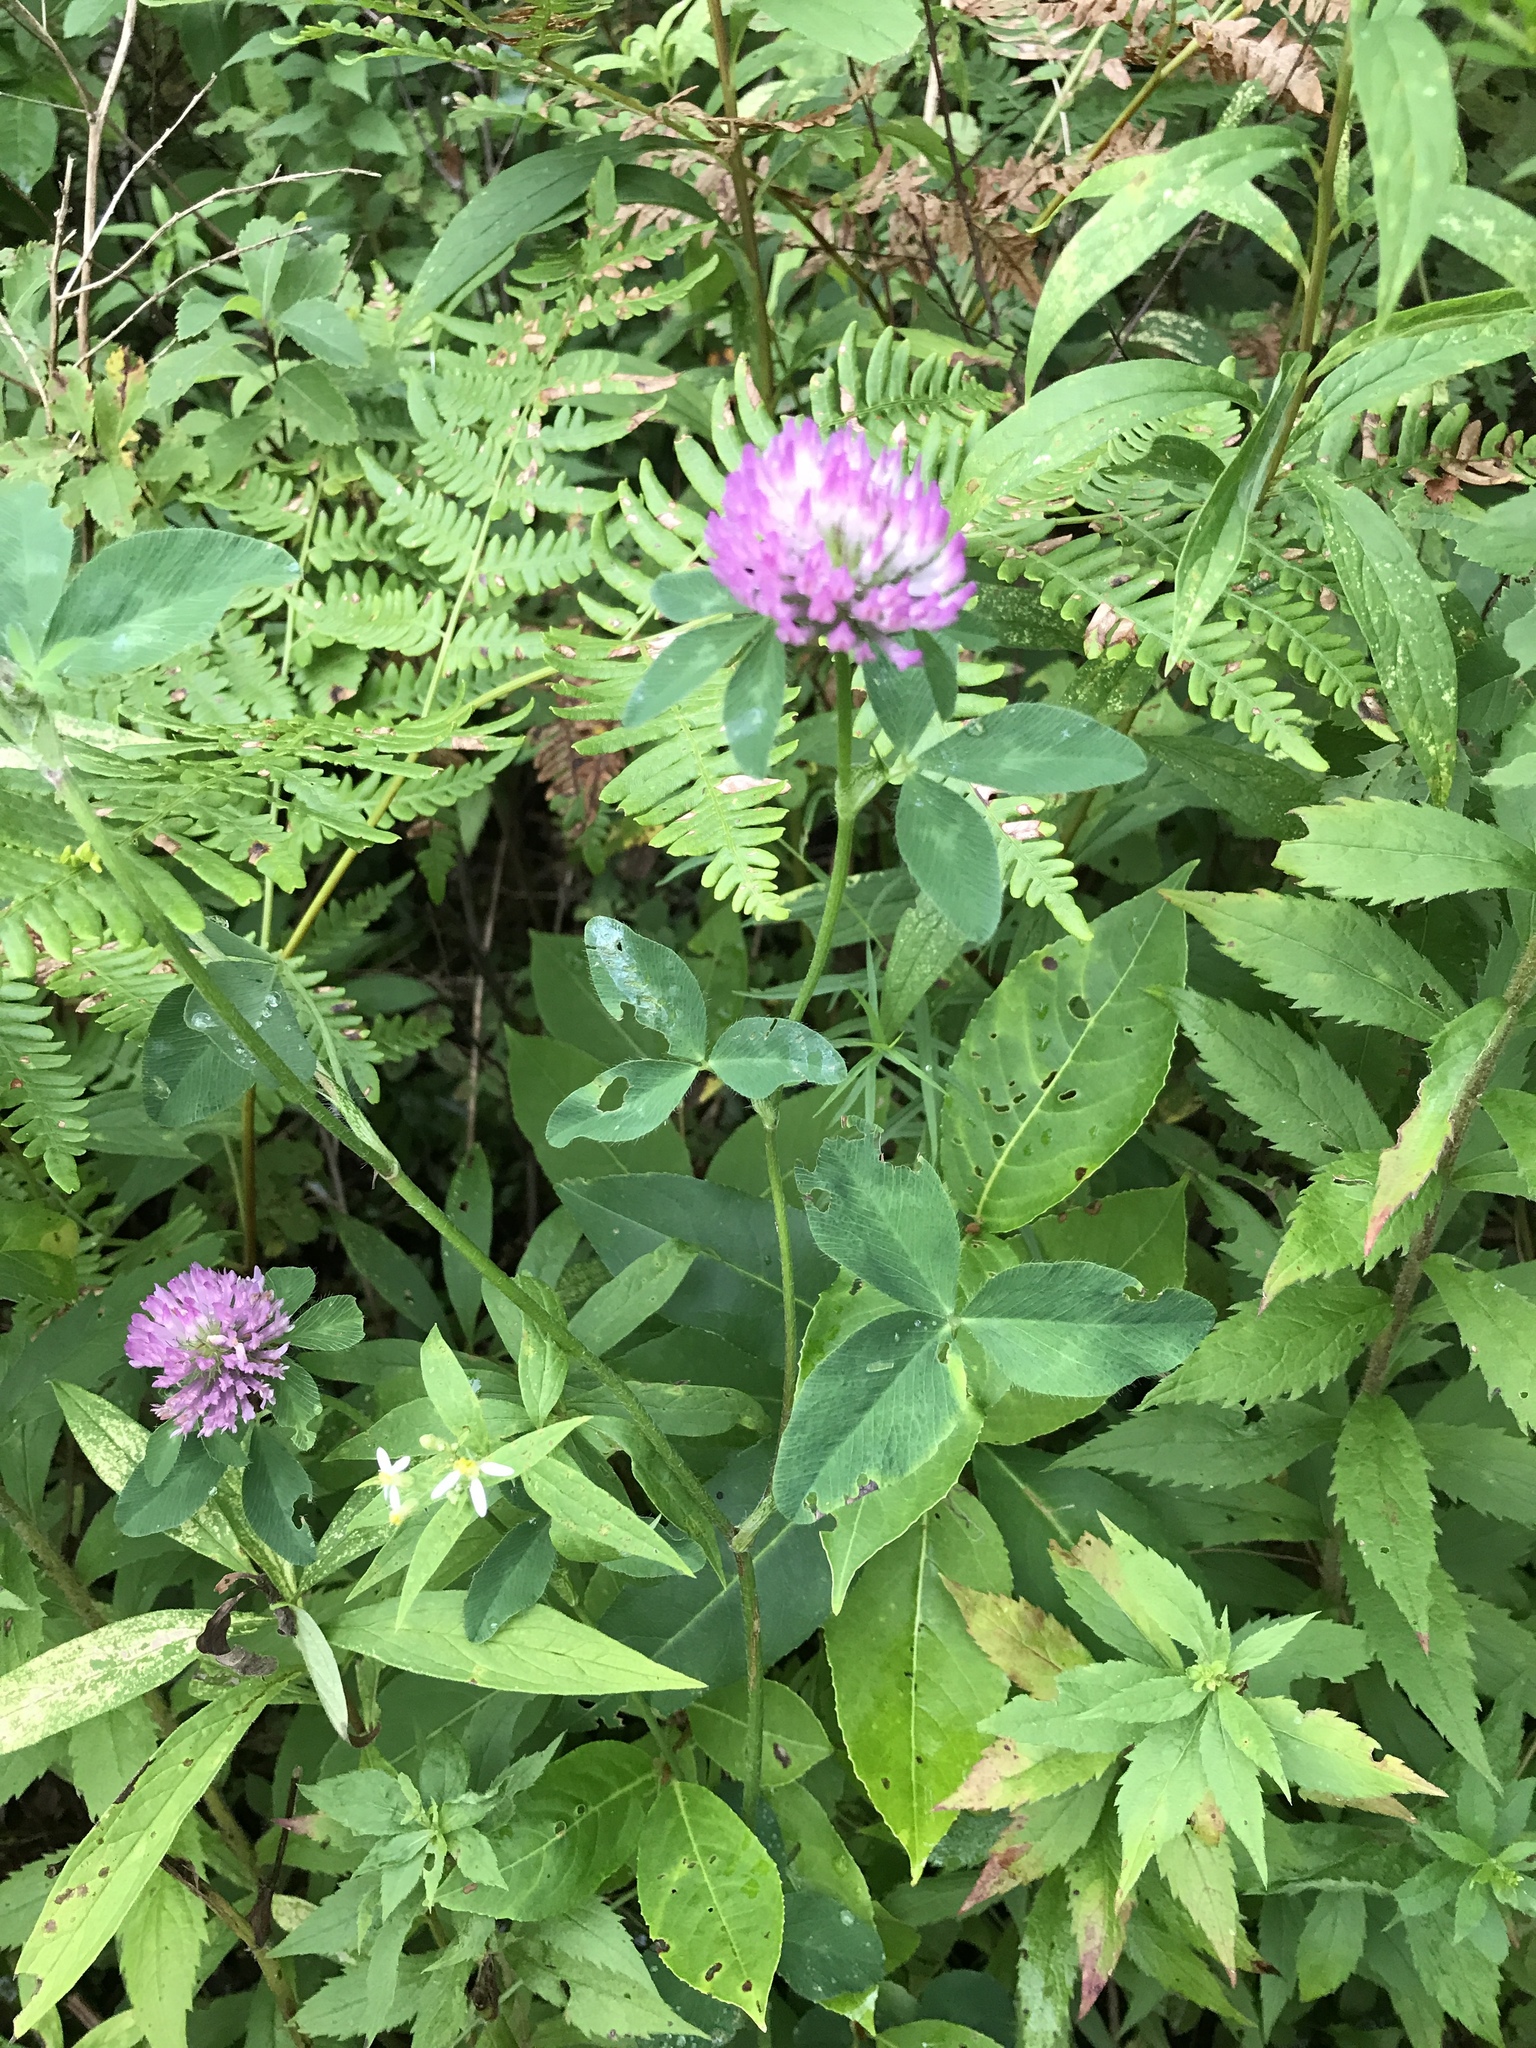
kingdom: Plantae
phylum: Tracheophyta
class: Magnoliopsida
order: Fabales
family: Fabaceae
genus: Trifolium
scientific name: Trifolium pratense
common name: Red clover
